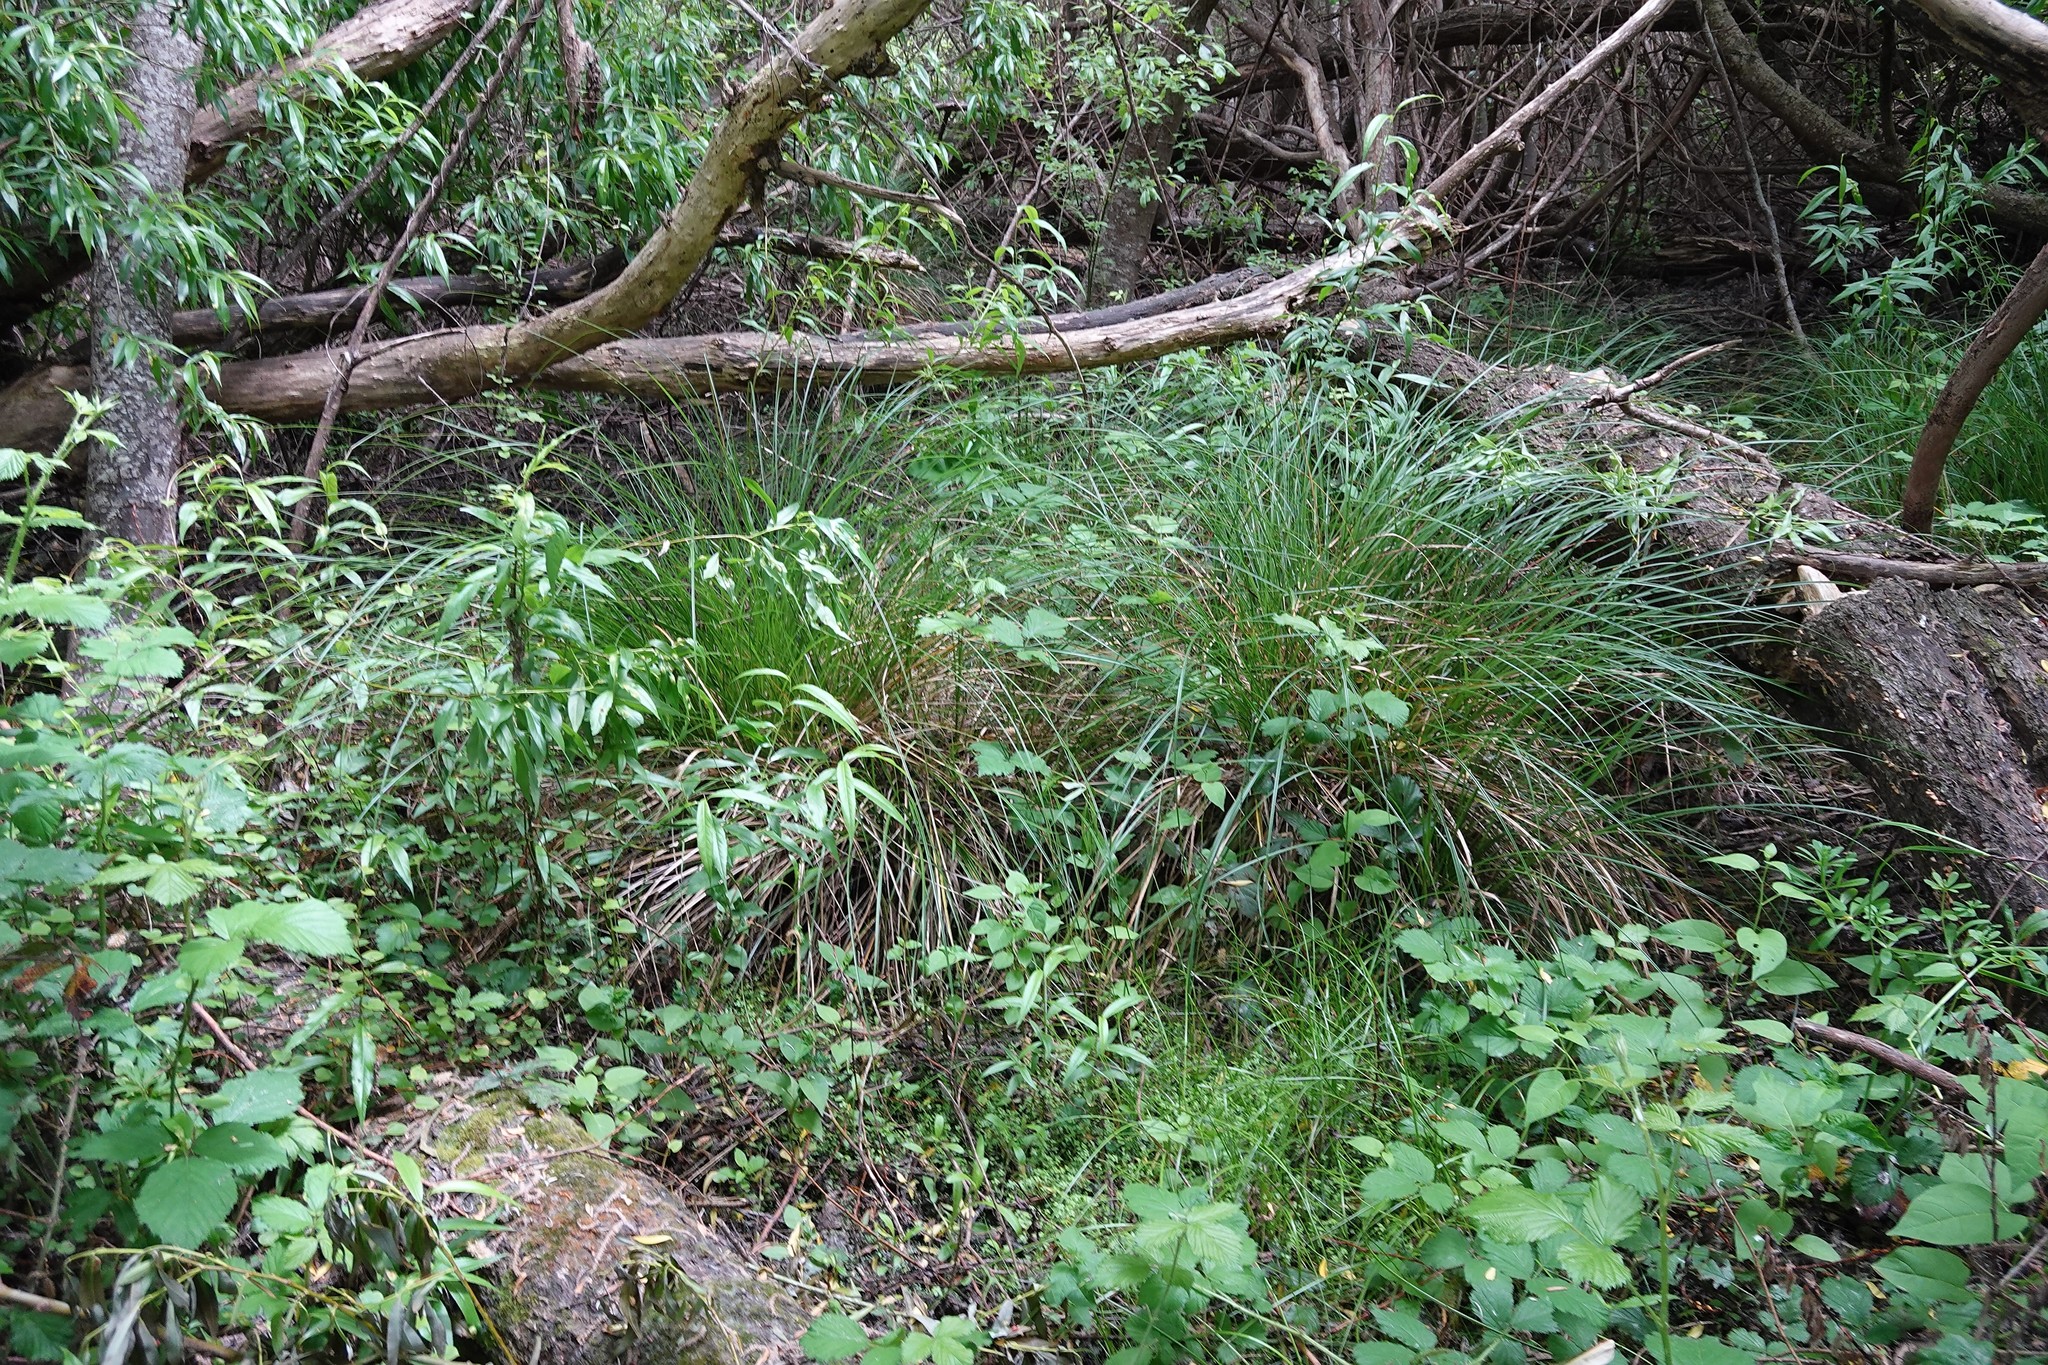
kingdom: Plantae
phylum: Tracheophyta
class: Liliopsida
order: Poales
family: Cyperaceae
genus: Carex
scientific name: Carex virgata
